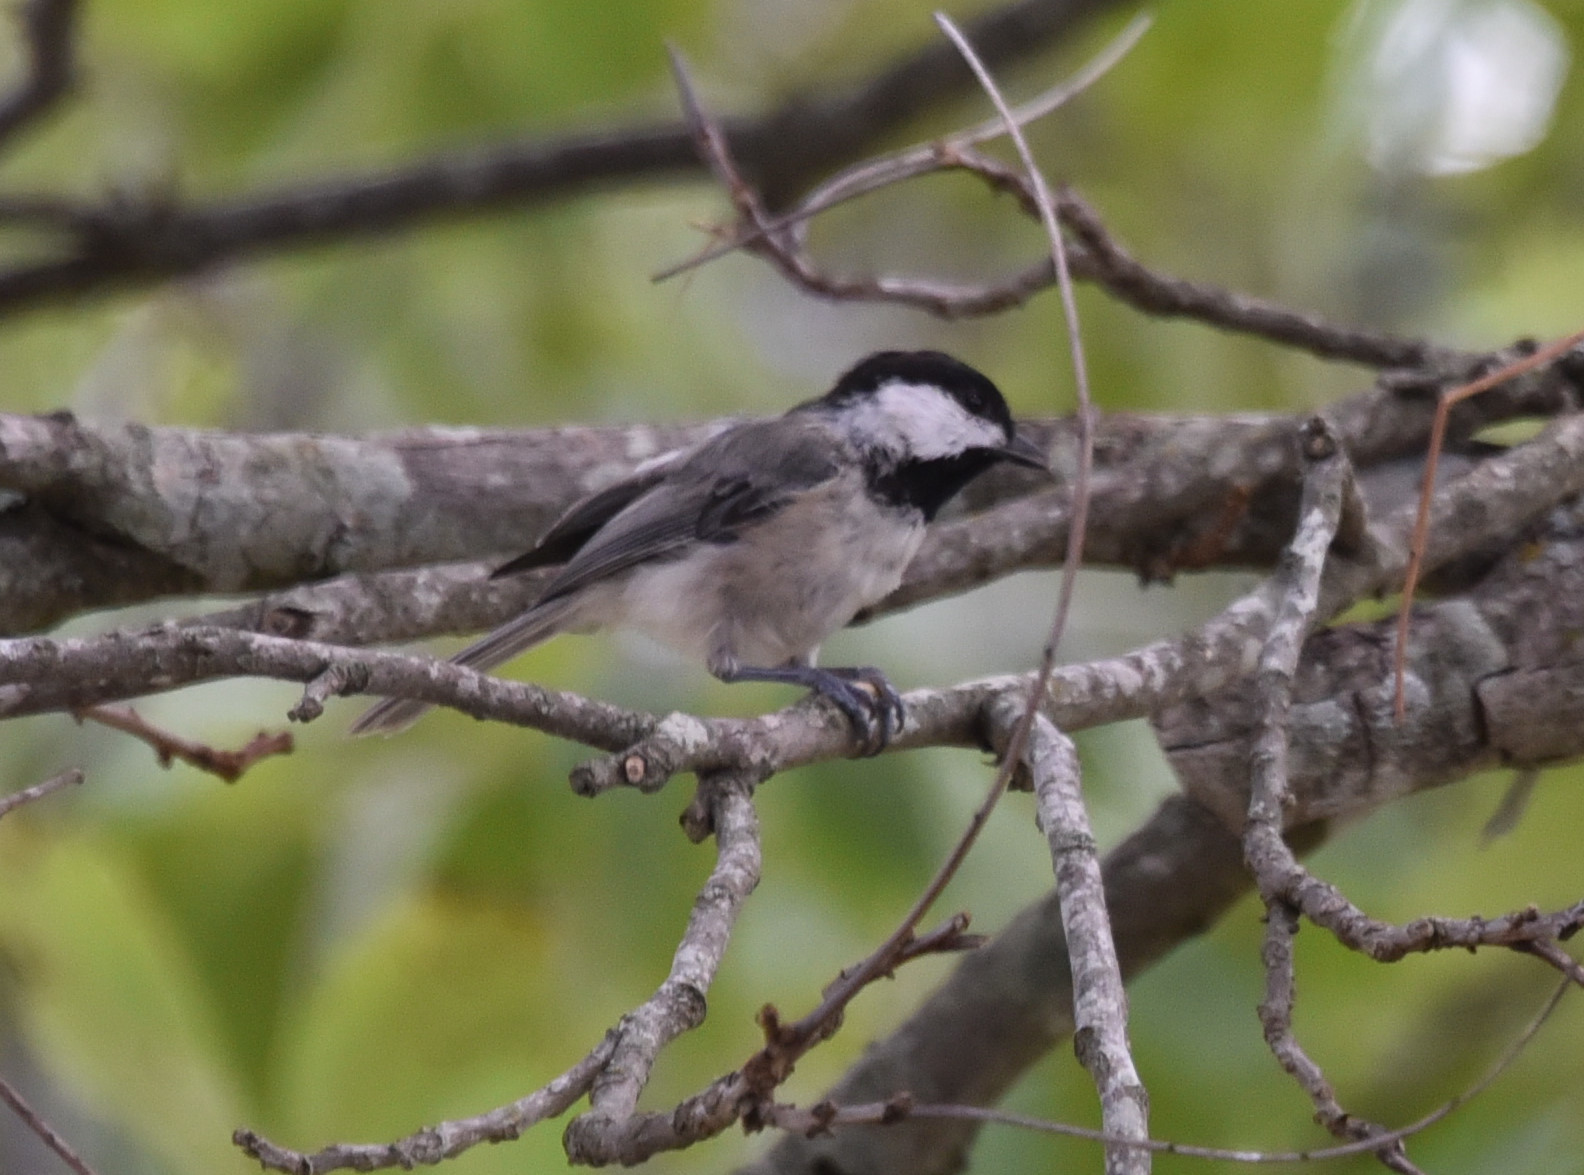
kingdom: Animalia
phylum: Chordata
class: Aves
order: Passeriformes
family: Paridae
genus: Poecile
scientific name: Poecile carolinensis
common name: Carolina chickadee
